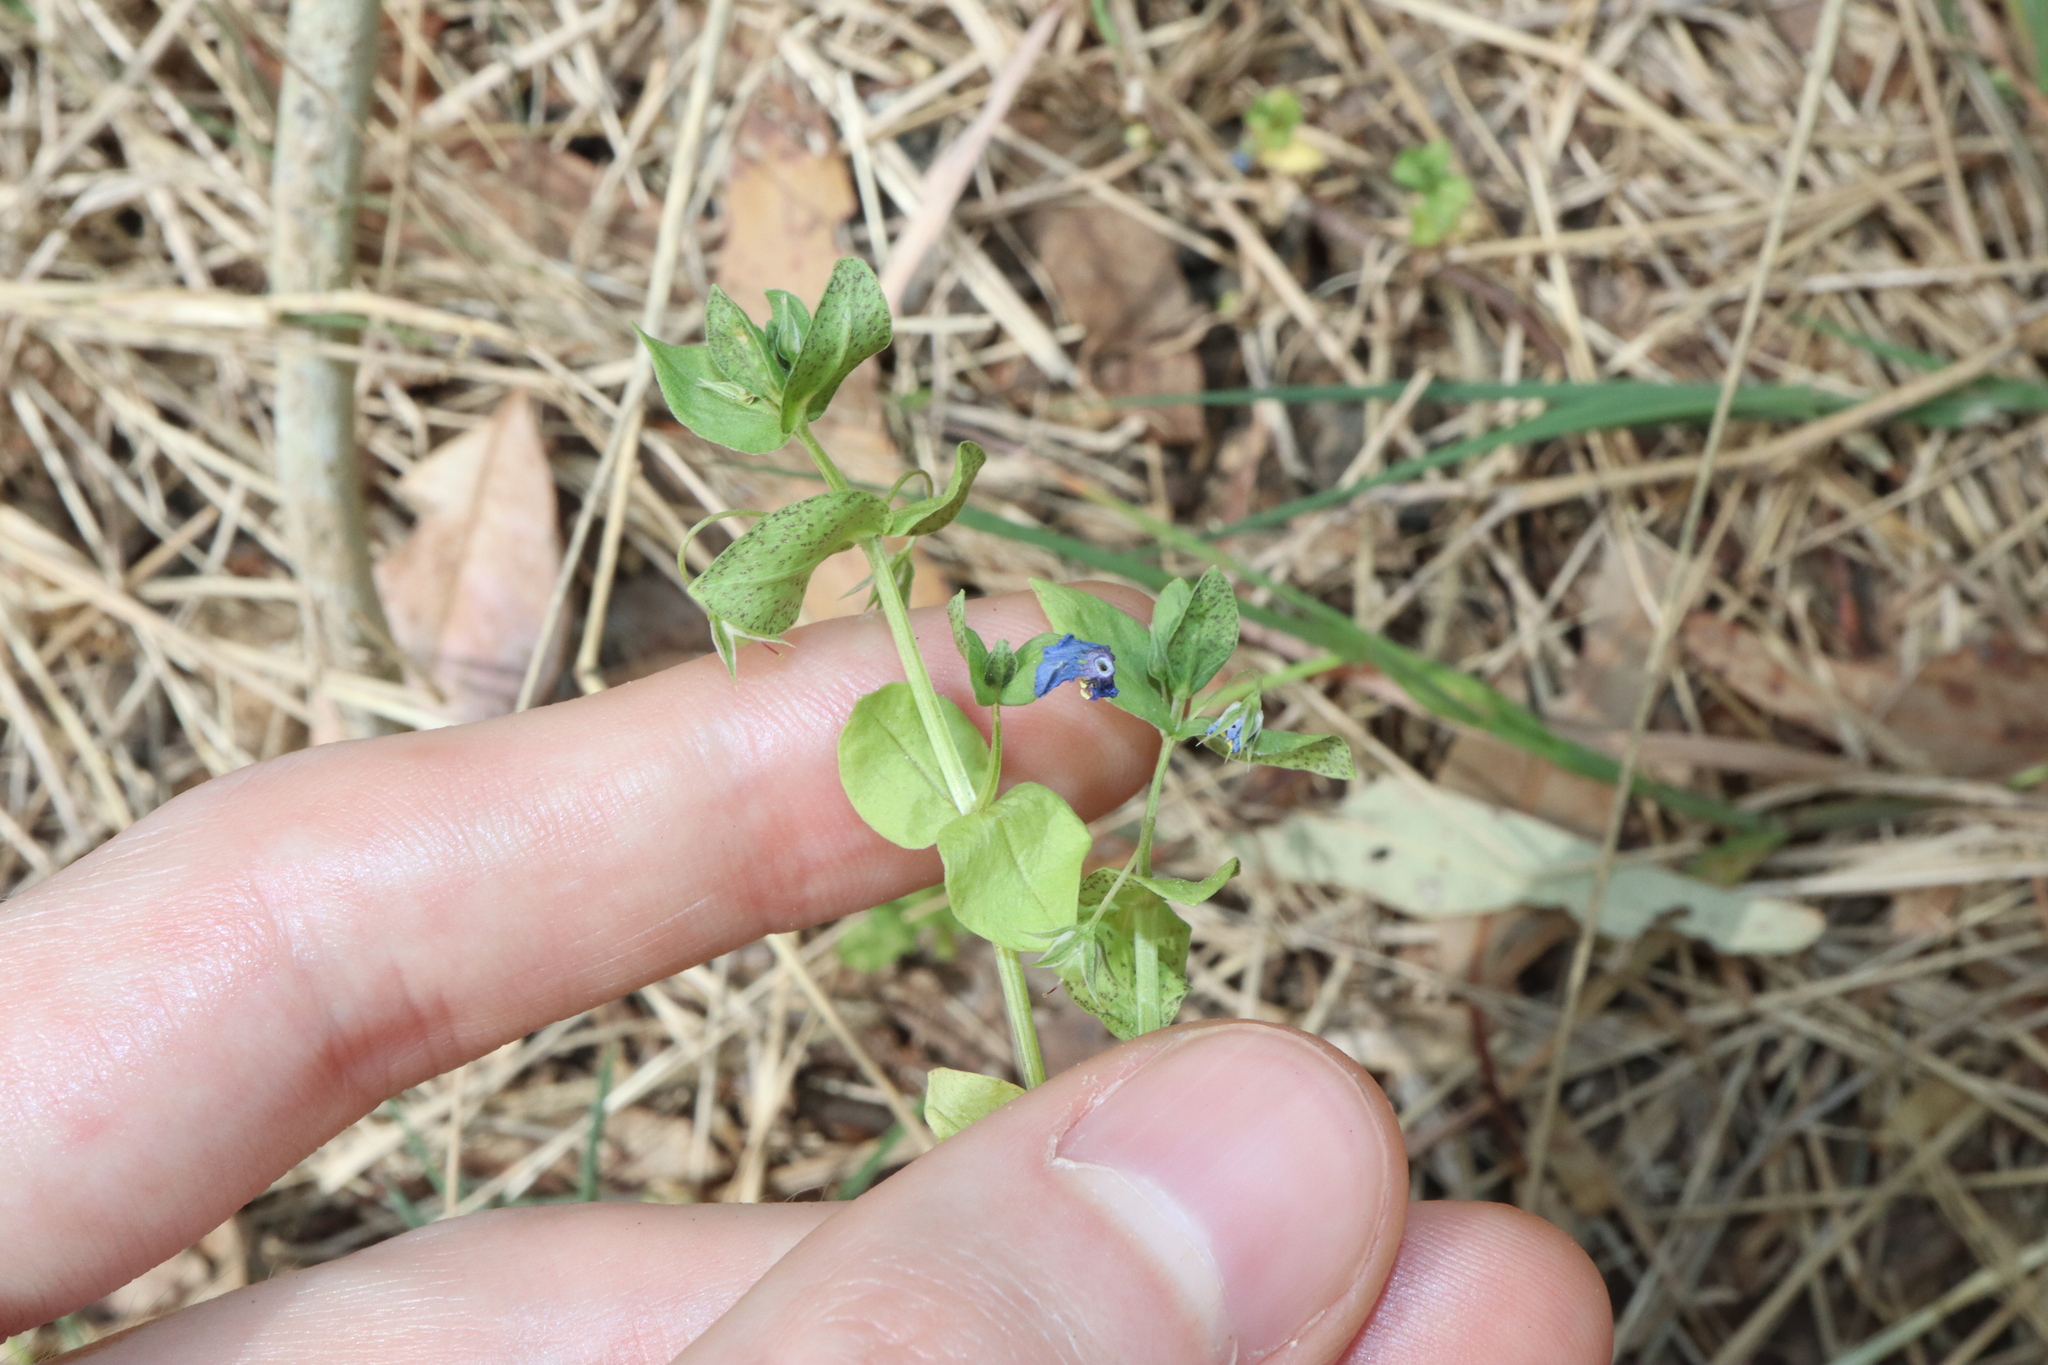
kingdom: Plantae
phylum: Tracheophyta
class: Magnoliopsida
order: Ericales
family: Primulaceae
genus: Lysimachia
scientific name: Lysimachia loeflingii
